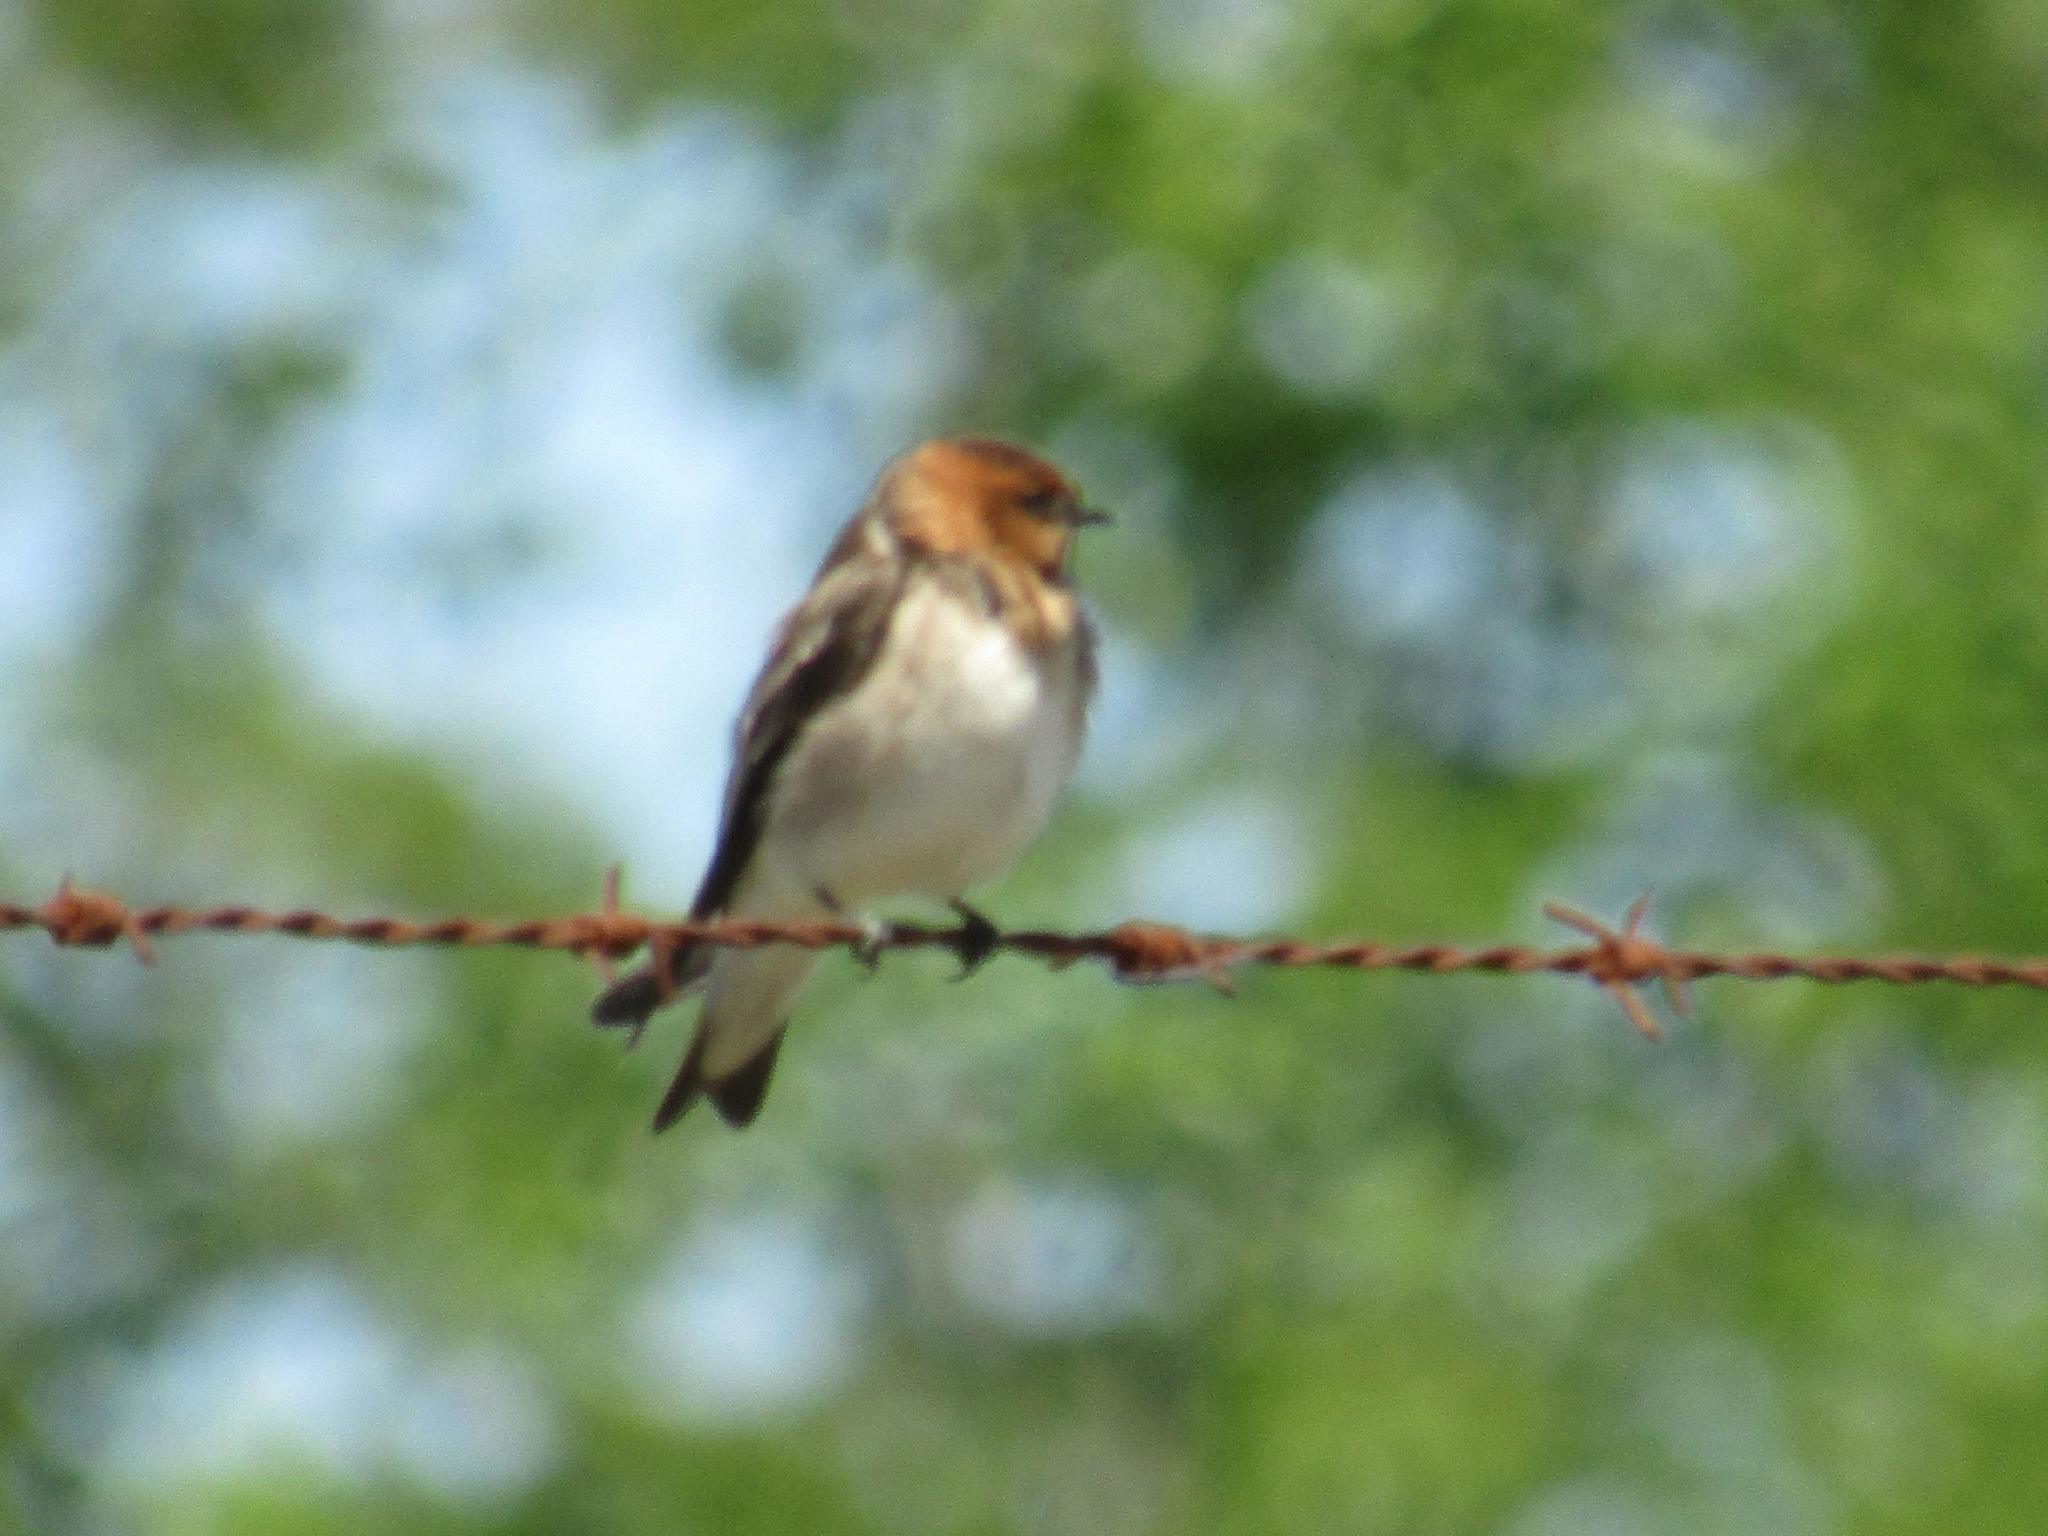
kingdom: Animalia
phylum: Chordata
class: Aves
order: Passeriformes
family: Hirundinidae
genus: Alopochelidon
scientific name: Alopochelidon fucata
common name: Tawny-headed swallow
